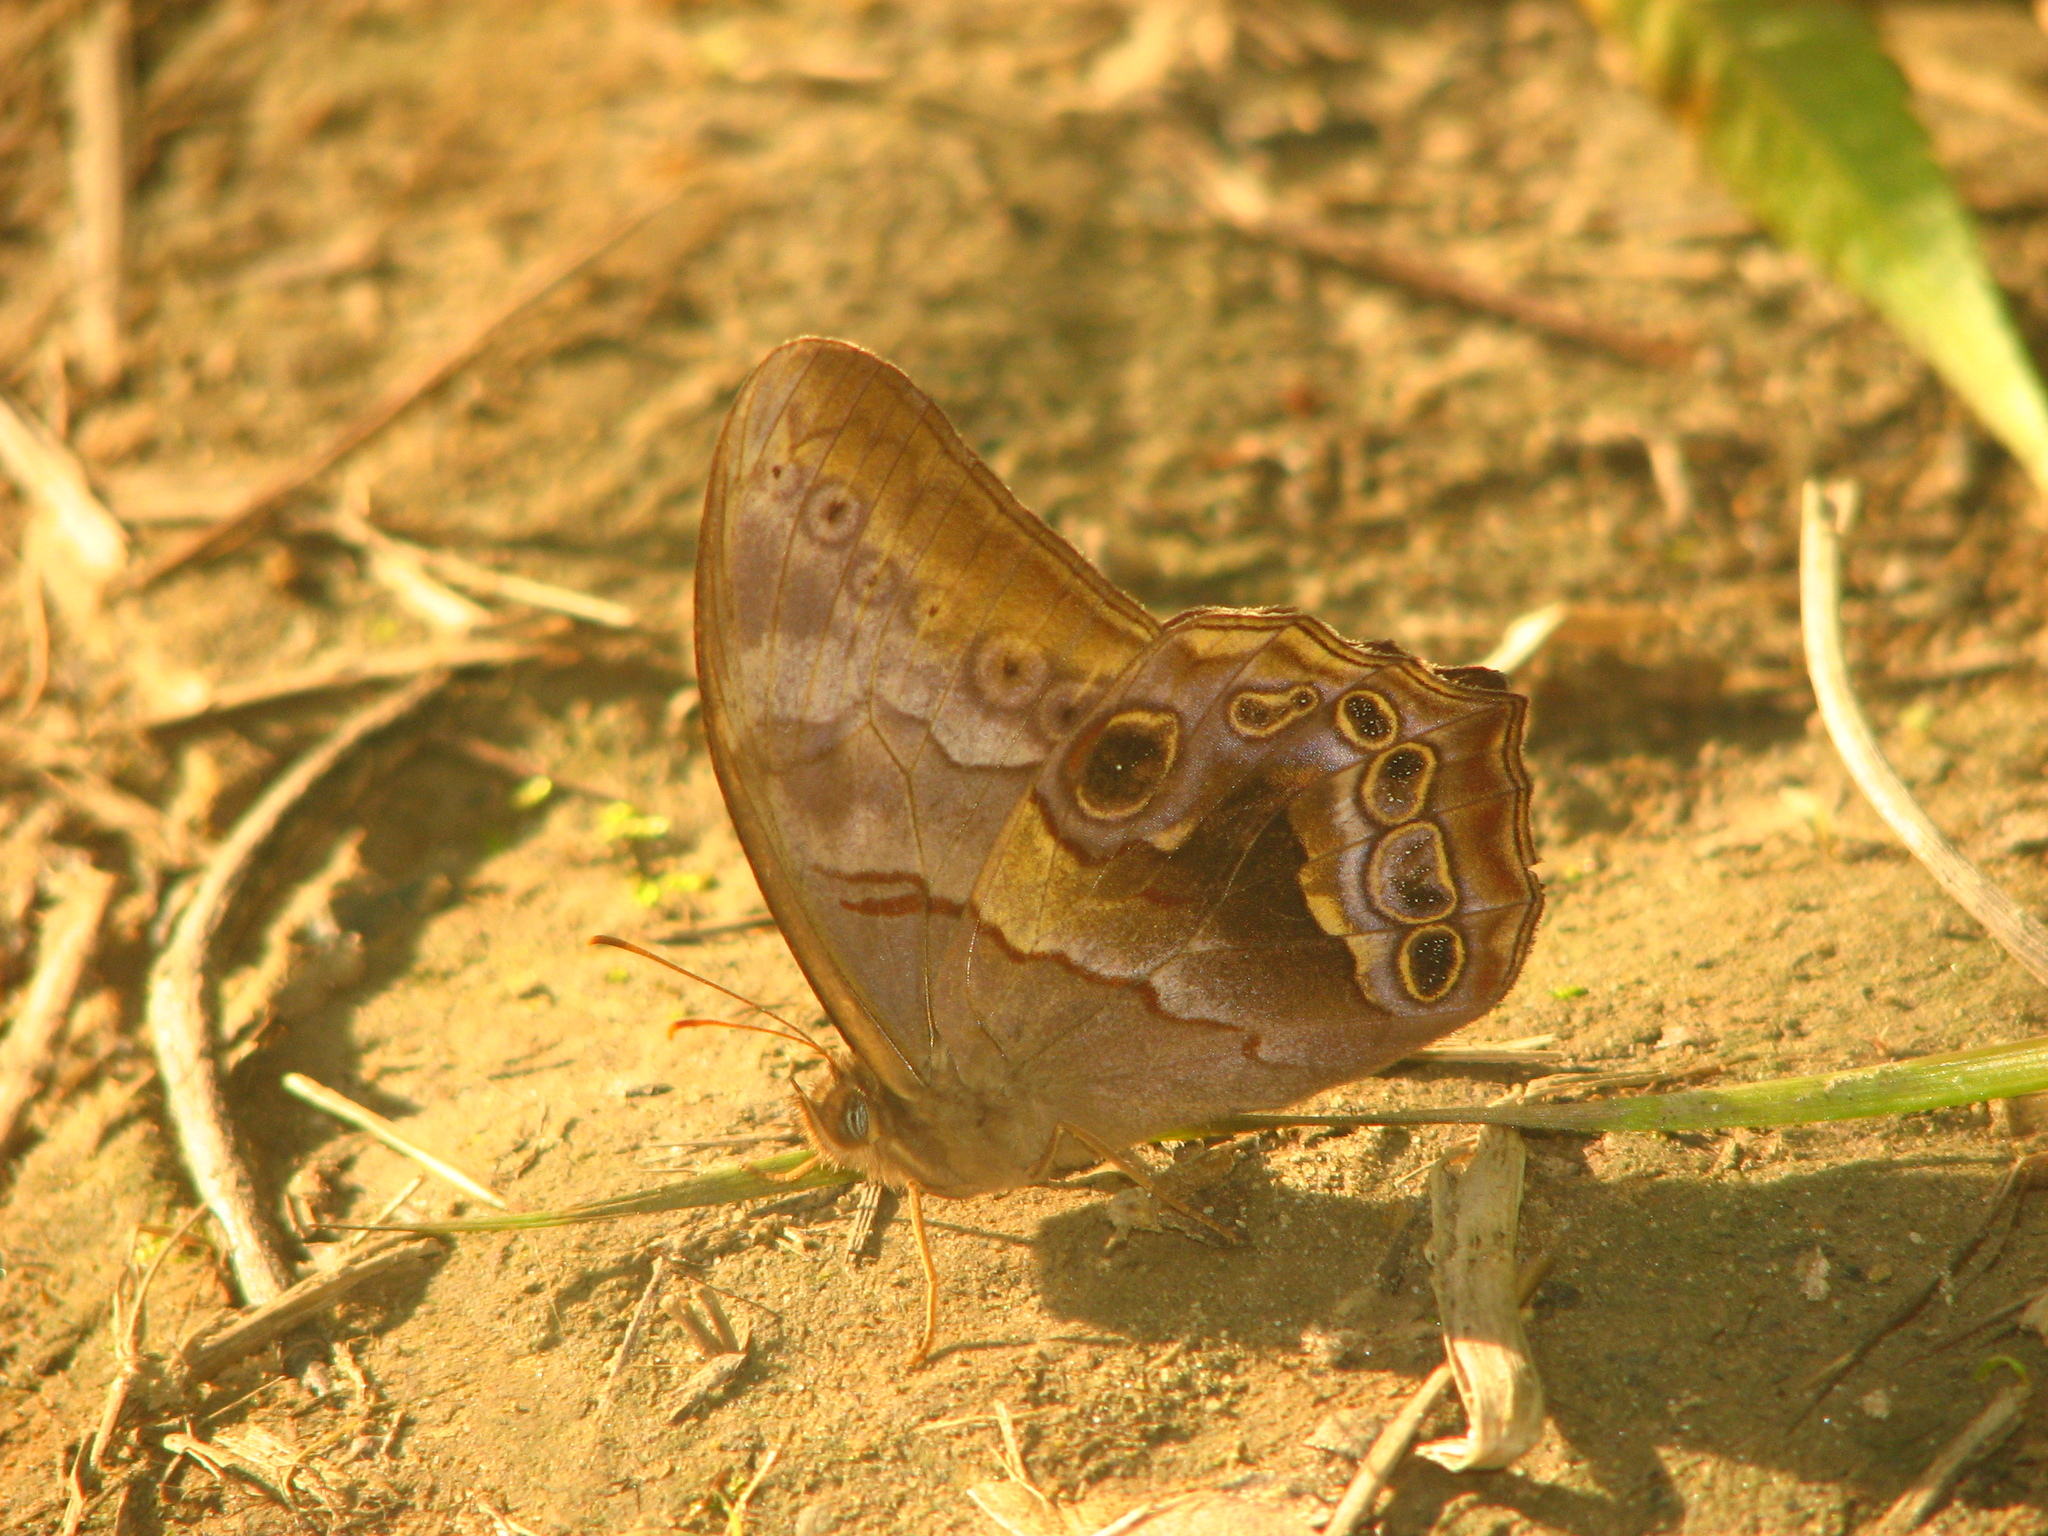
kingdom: Animalia
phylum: Arthropoda
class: Insecta
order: Lepidoptera
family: Nymphalidae
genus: Lethe
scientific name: Lethe chandica
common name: Angled red forester
